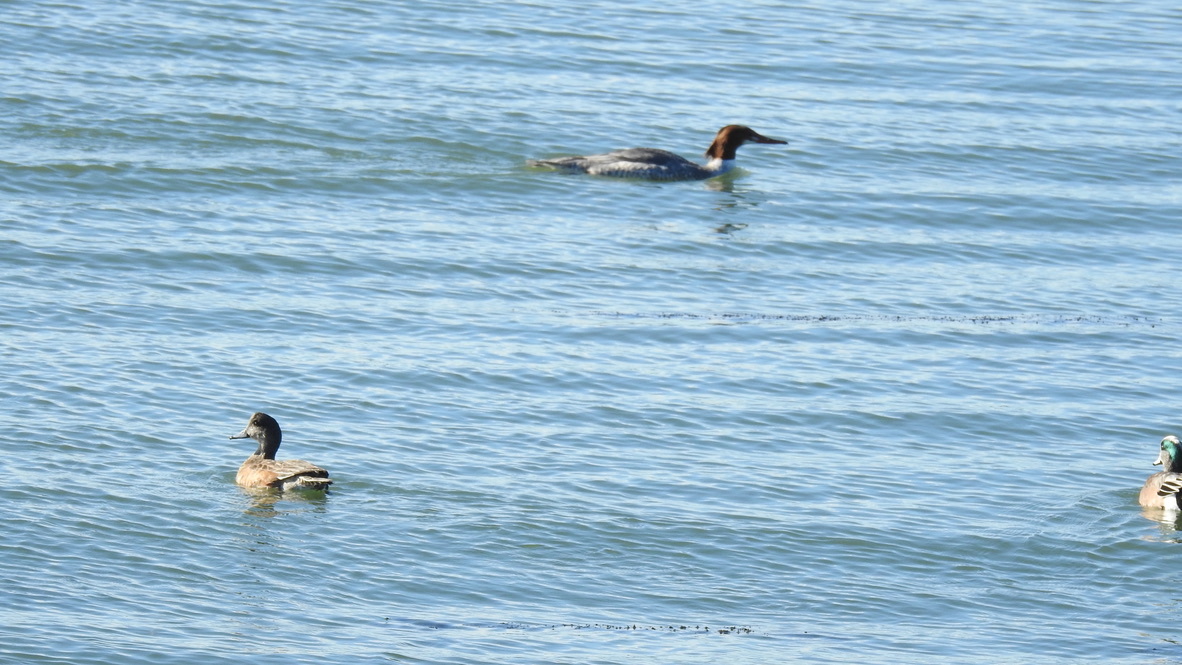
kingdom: Animalia
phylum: Chordata
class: Aves
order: Anseriformes
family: Anatidae
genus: Mergus
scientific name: Mergus merganser
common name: Common merganser
